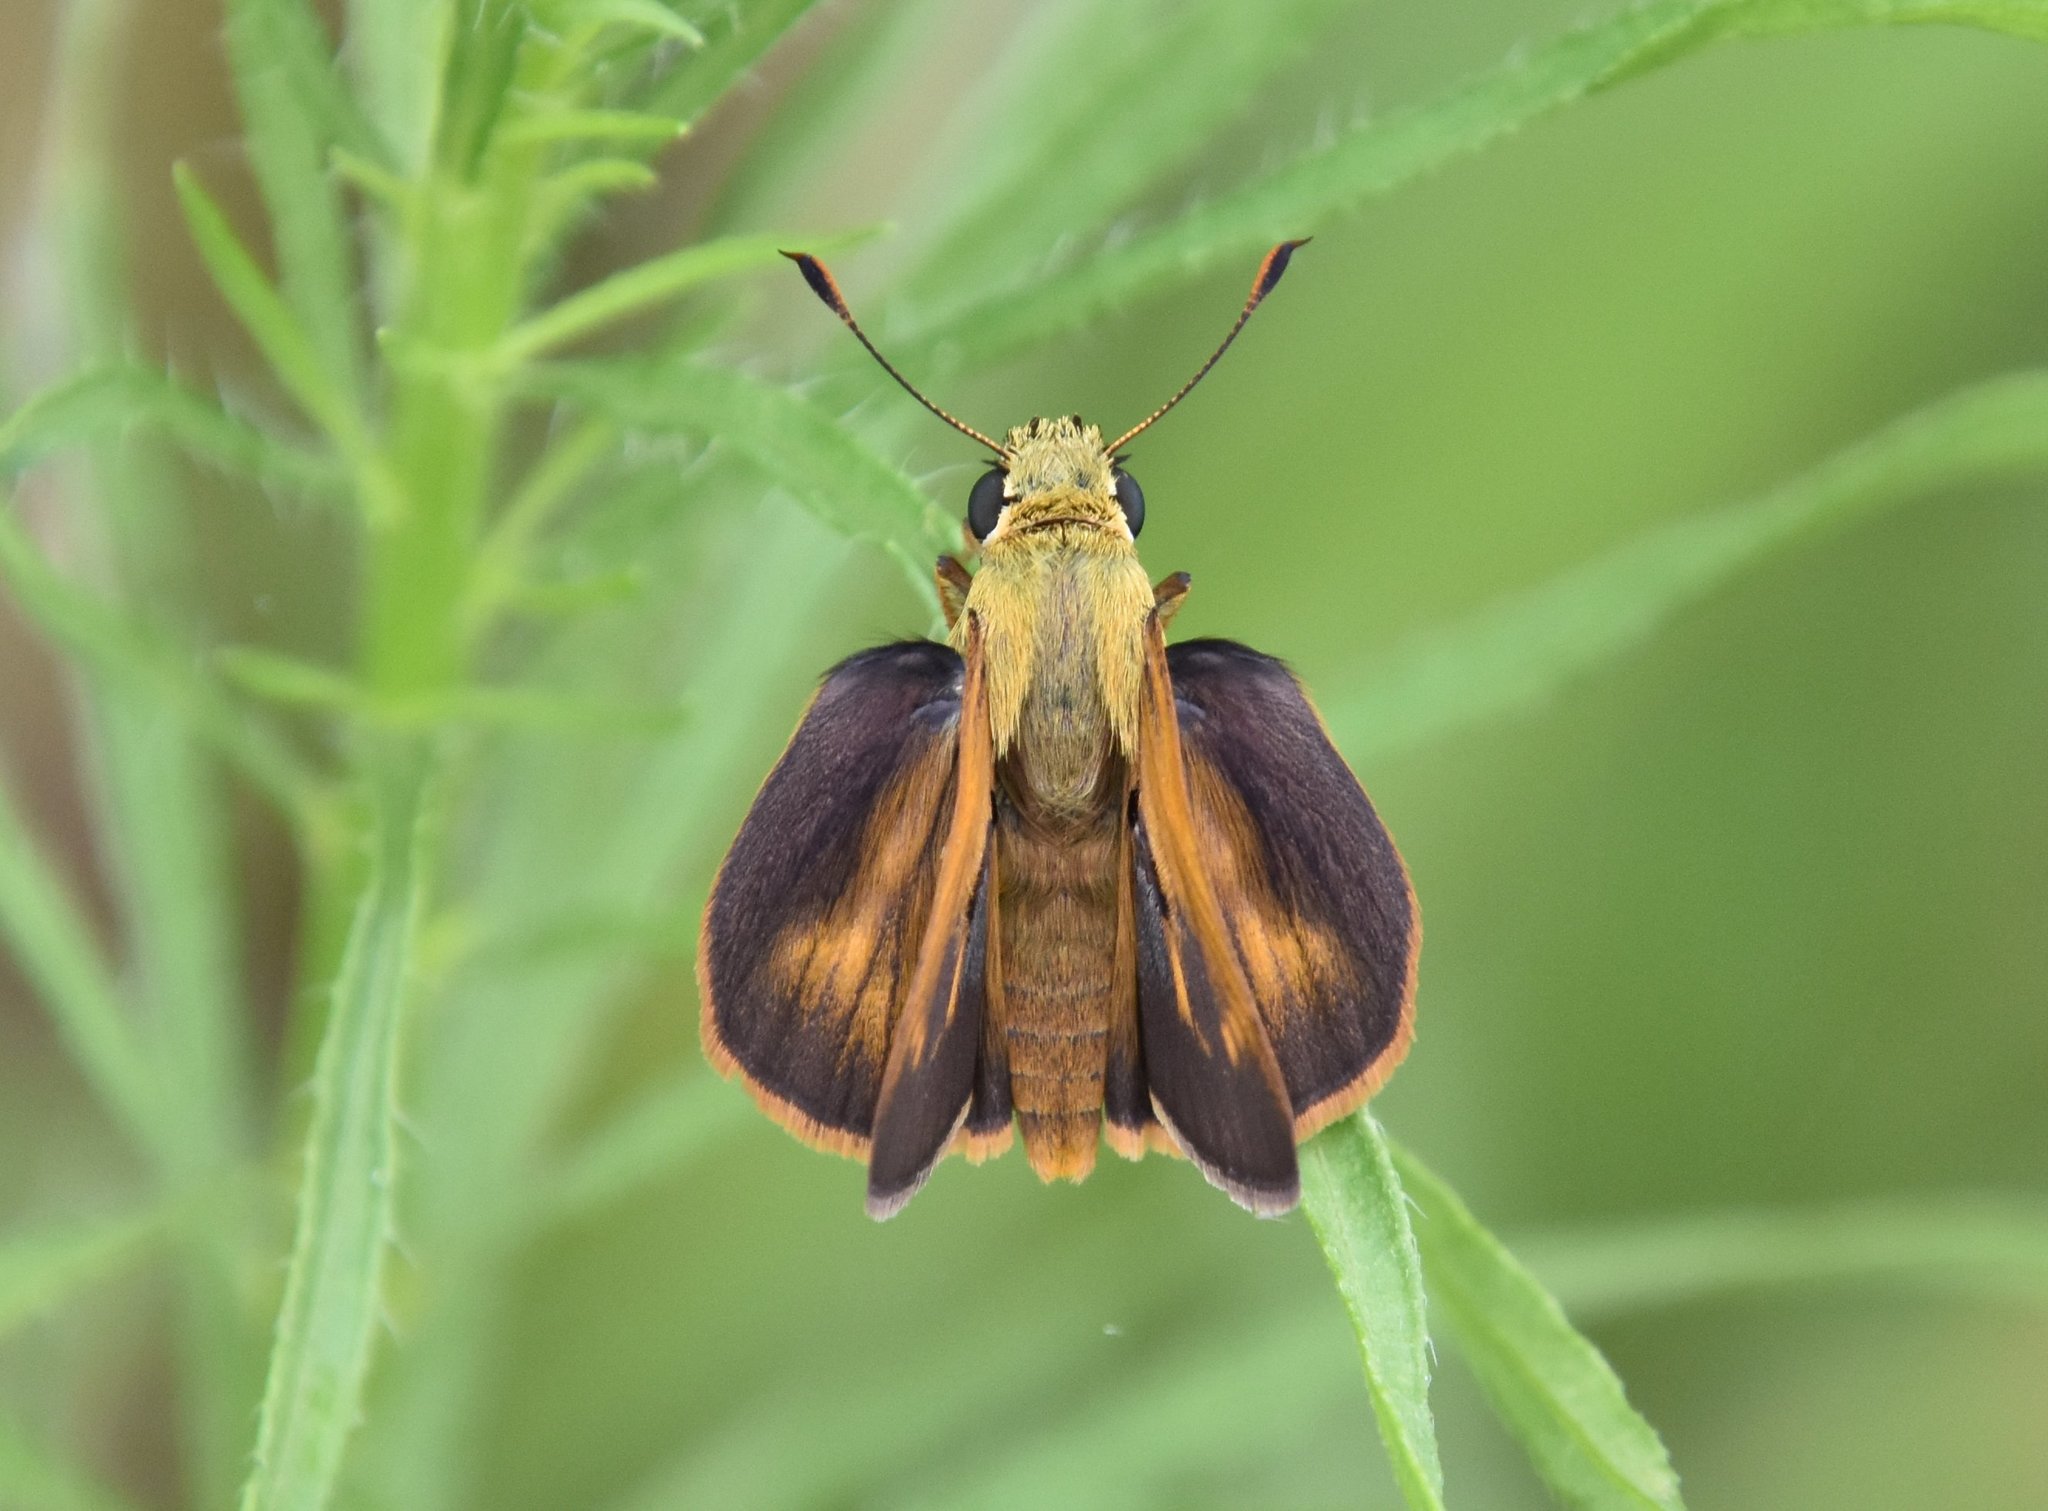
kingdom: Animalia
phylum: Arthropoda
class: Insecta
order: Lepidoptera
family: Hesperiidae
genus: Polites
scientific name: Polites otho
